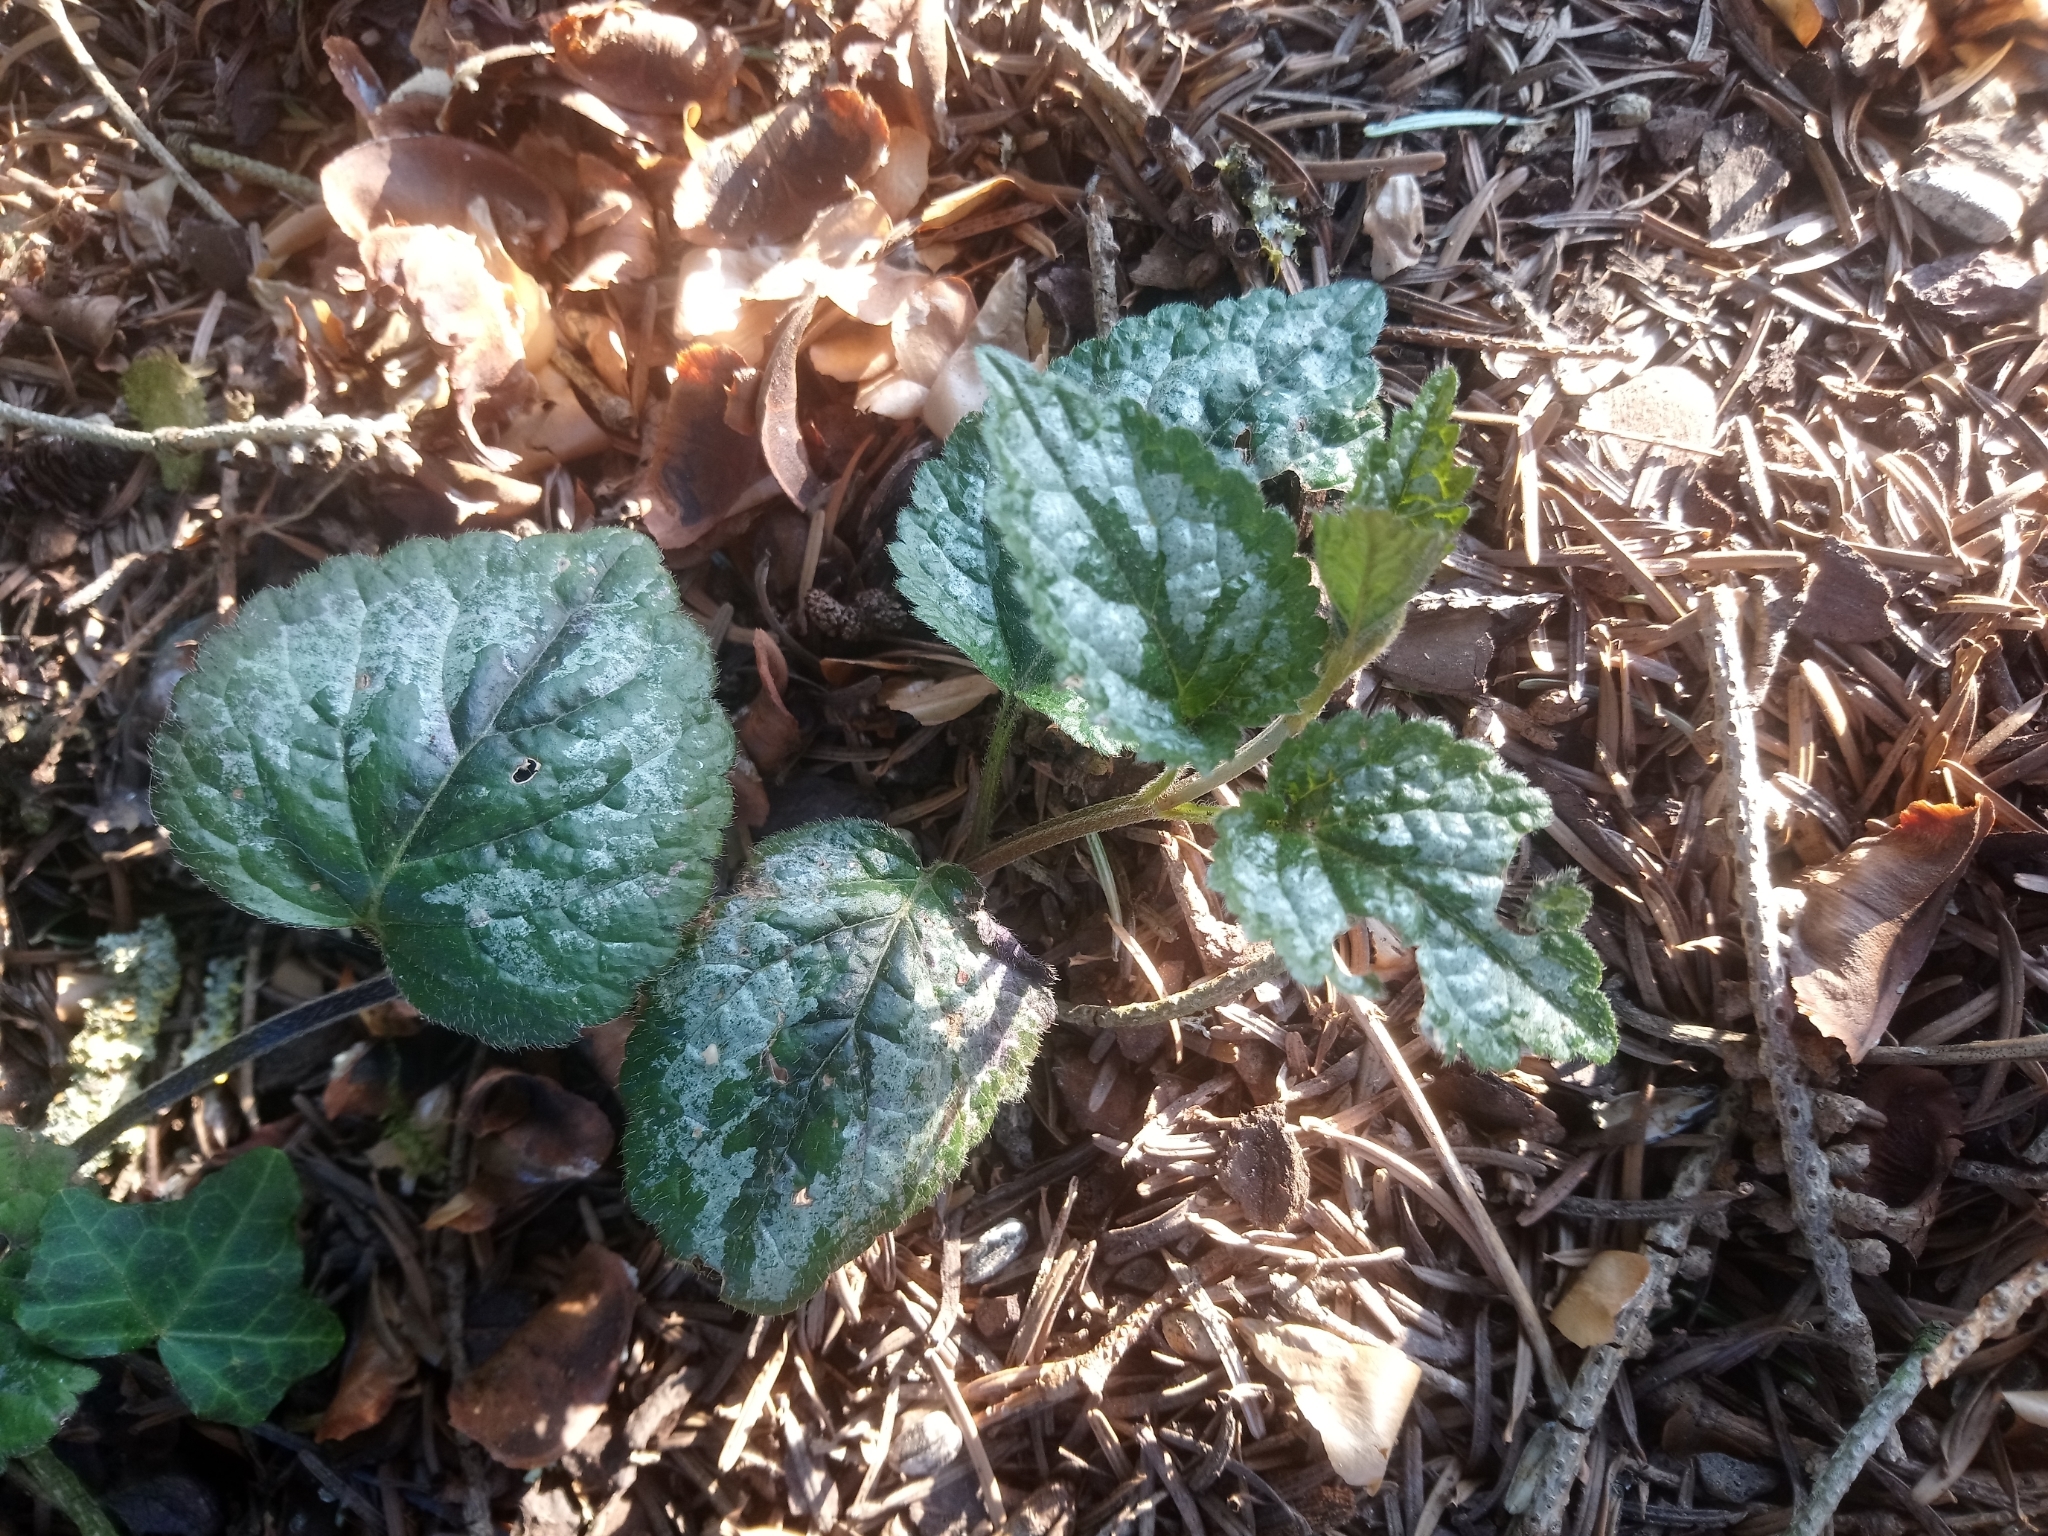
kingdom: Plantae
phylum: Tracheophyta
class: Magnoliopsida
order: Lamiales
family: Lamiaceae
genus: Lamium
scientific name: Lamium galeobdolon
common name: Yellow archangel
